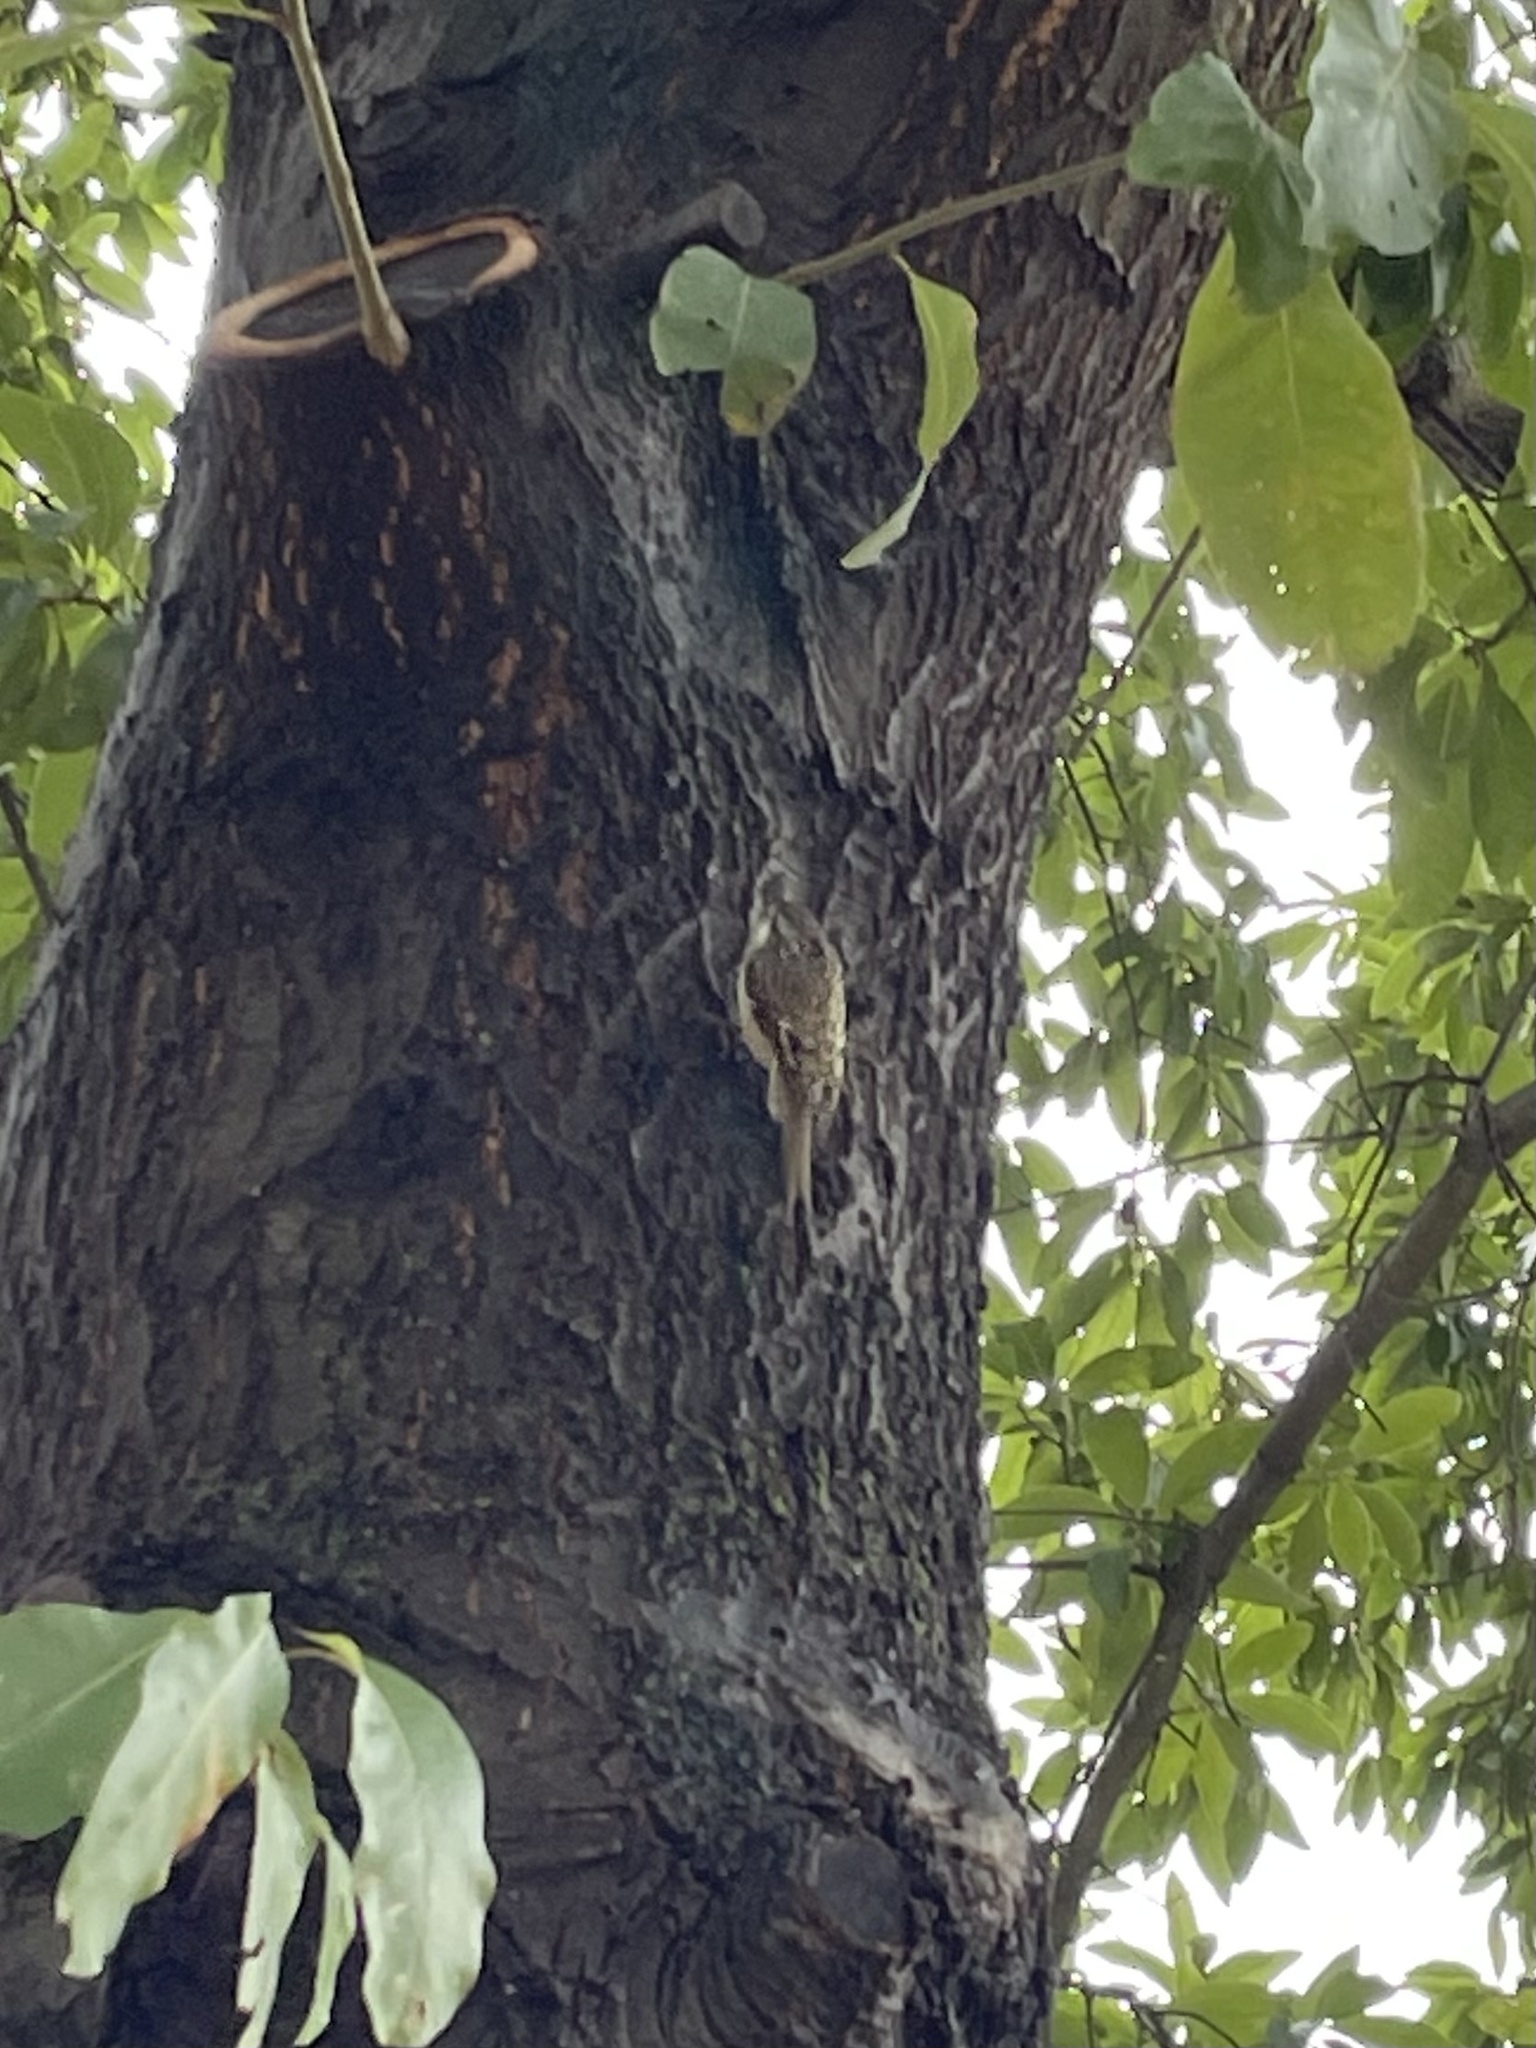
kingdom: Animalia
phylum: Chordata
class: Aves
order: Passeriformes
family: Certhiidae
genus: Certhia
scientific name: Certhia americana
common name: Brown creeper
